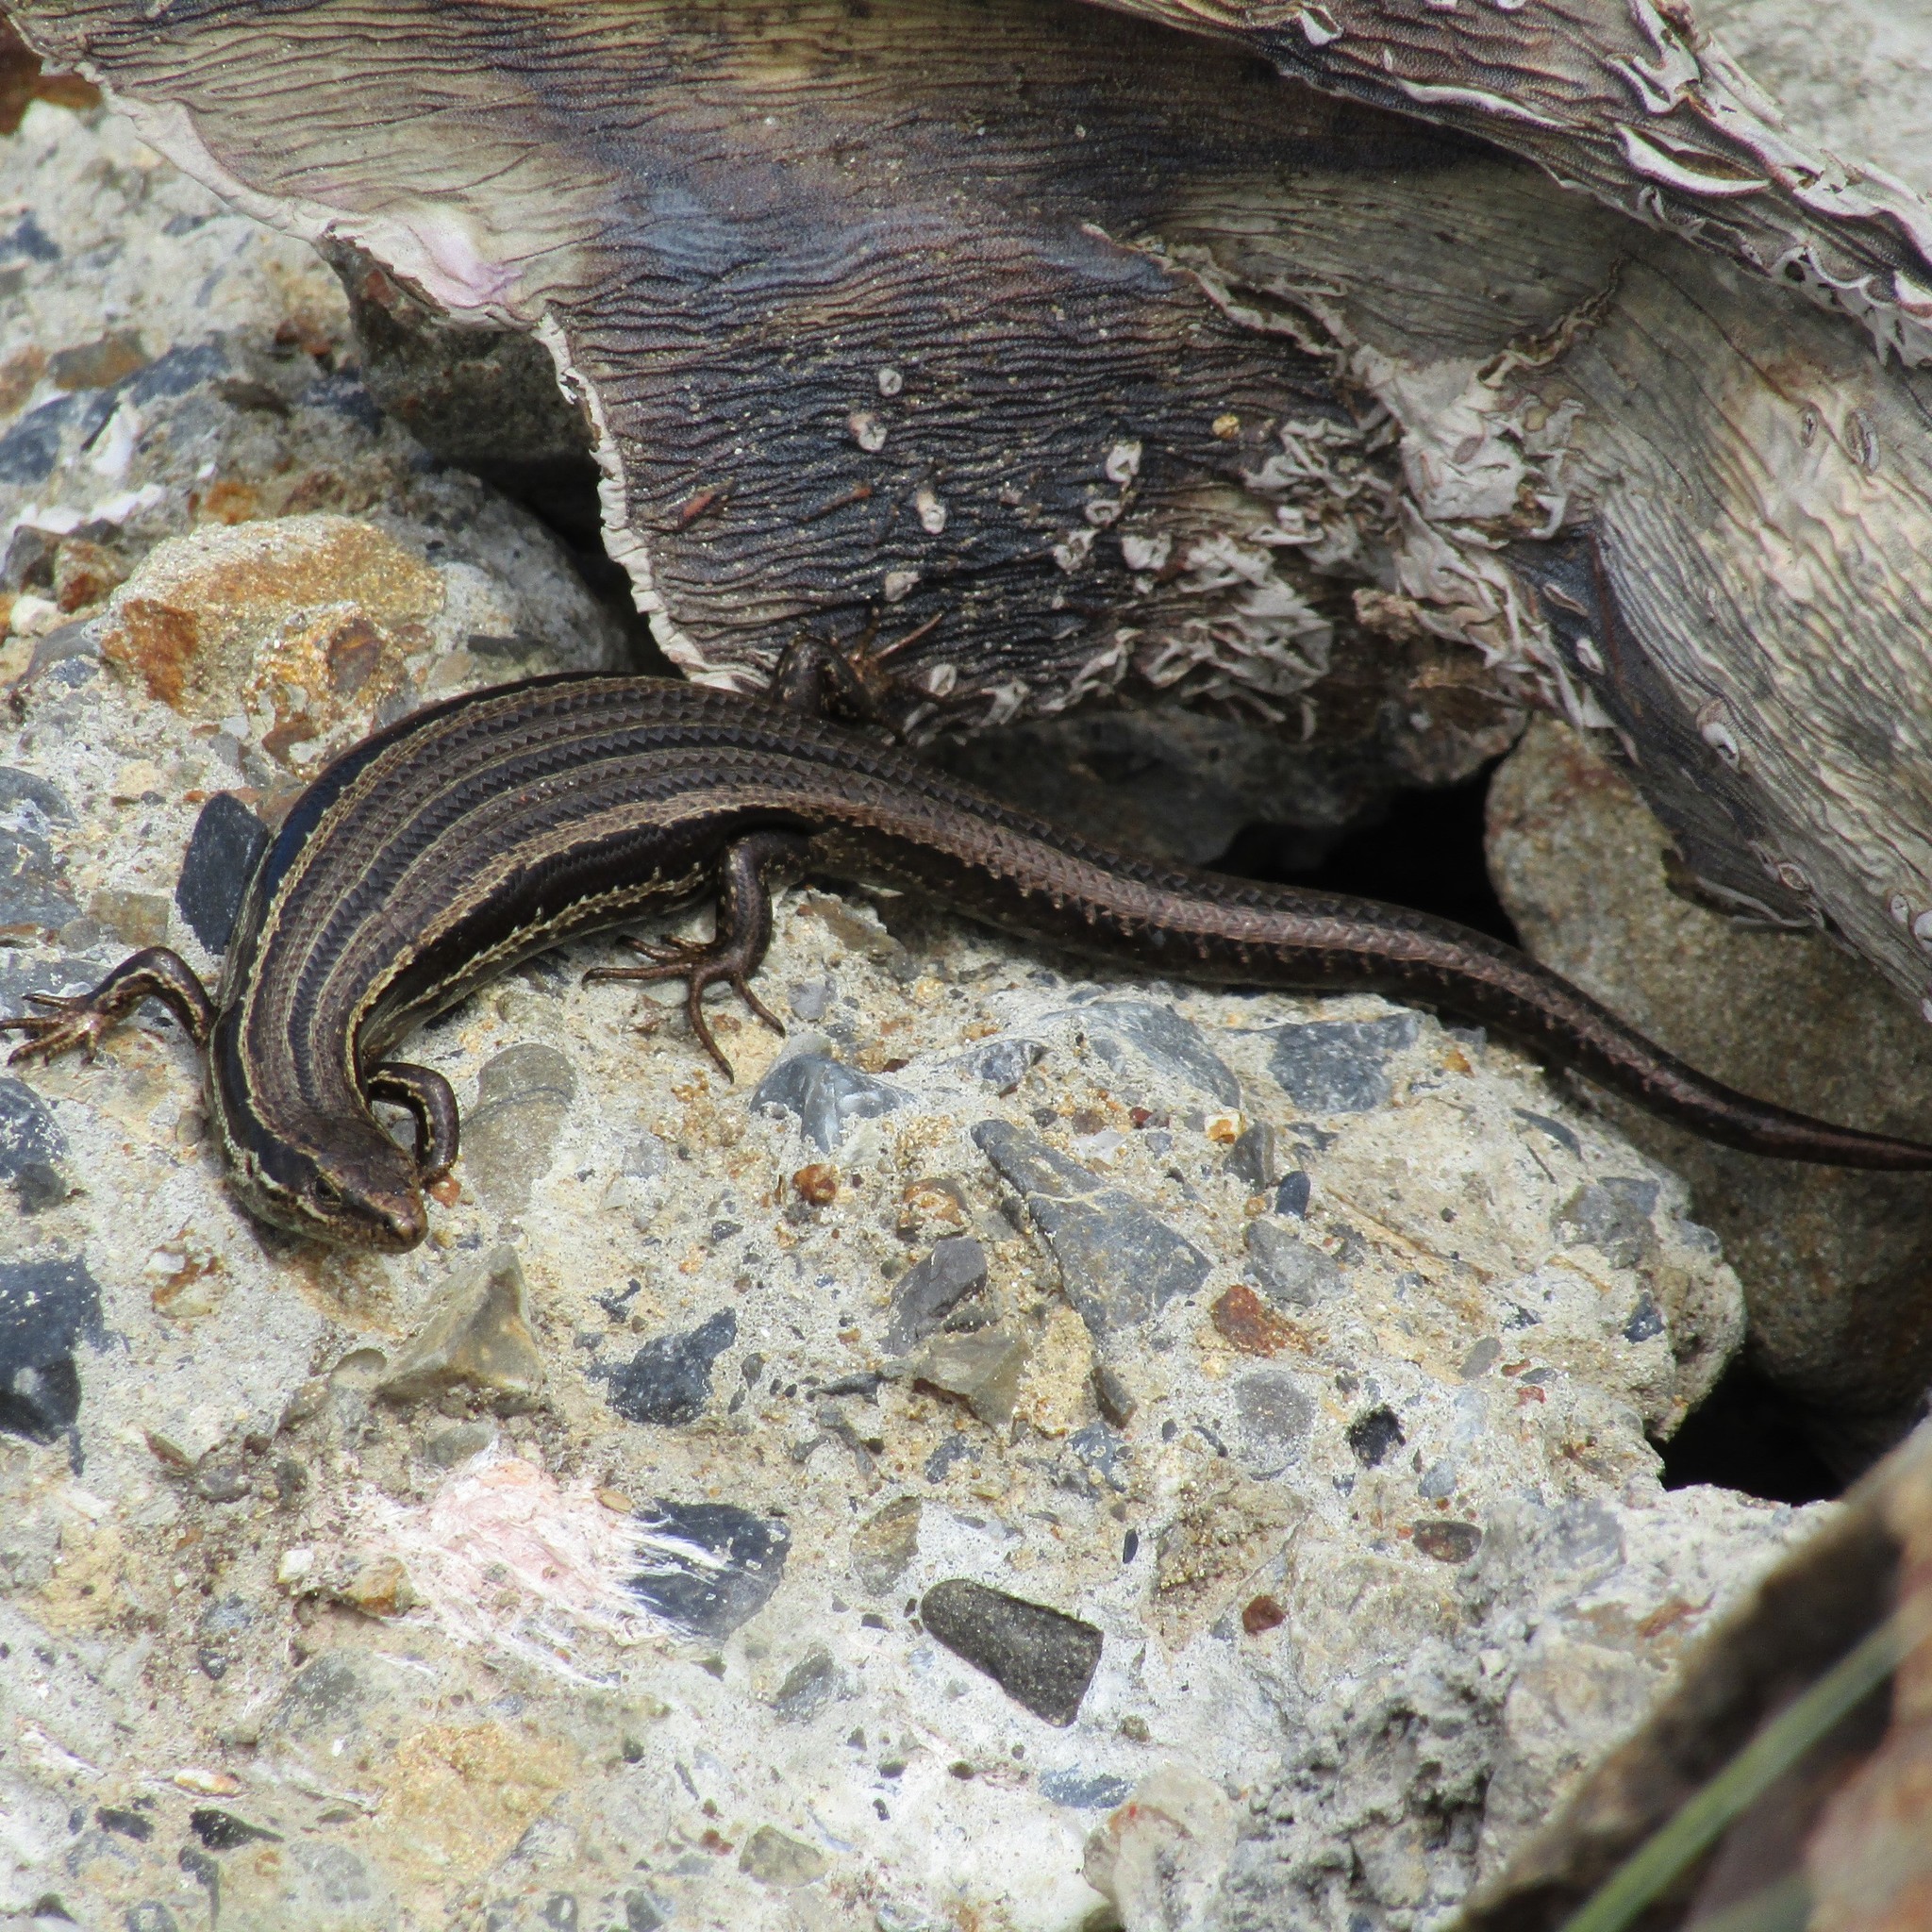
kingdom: Animalia
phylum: Chordata
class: Squamata
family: Scincidae
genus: Oligosoma
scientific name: Oligosoma polychroma
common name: Common new zealand skink
